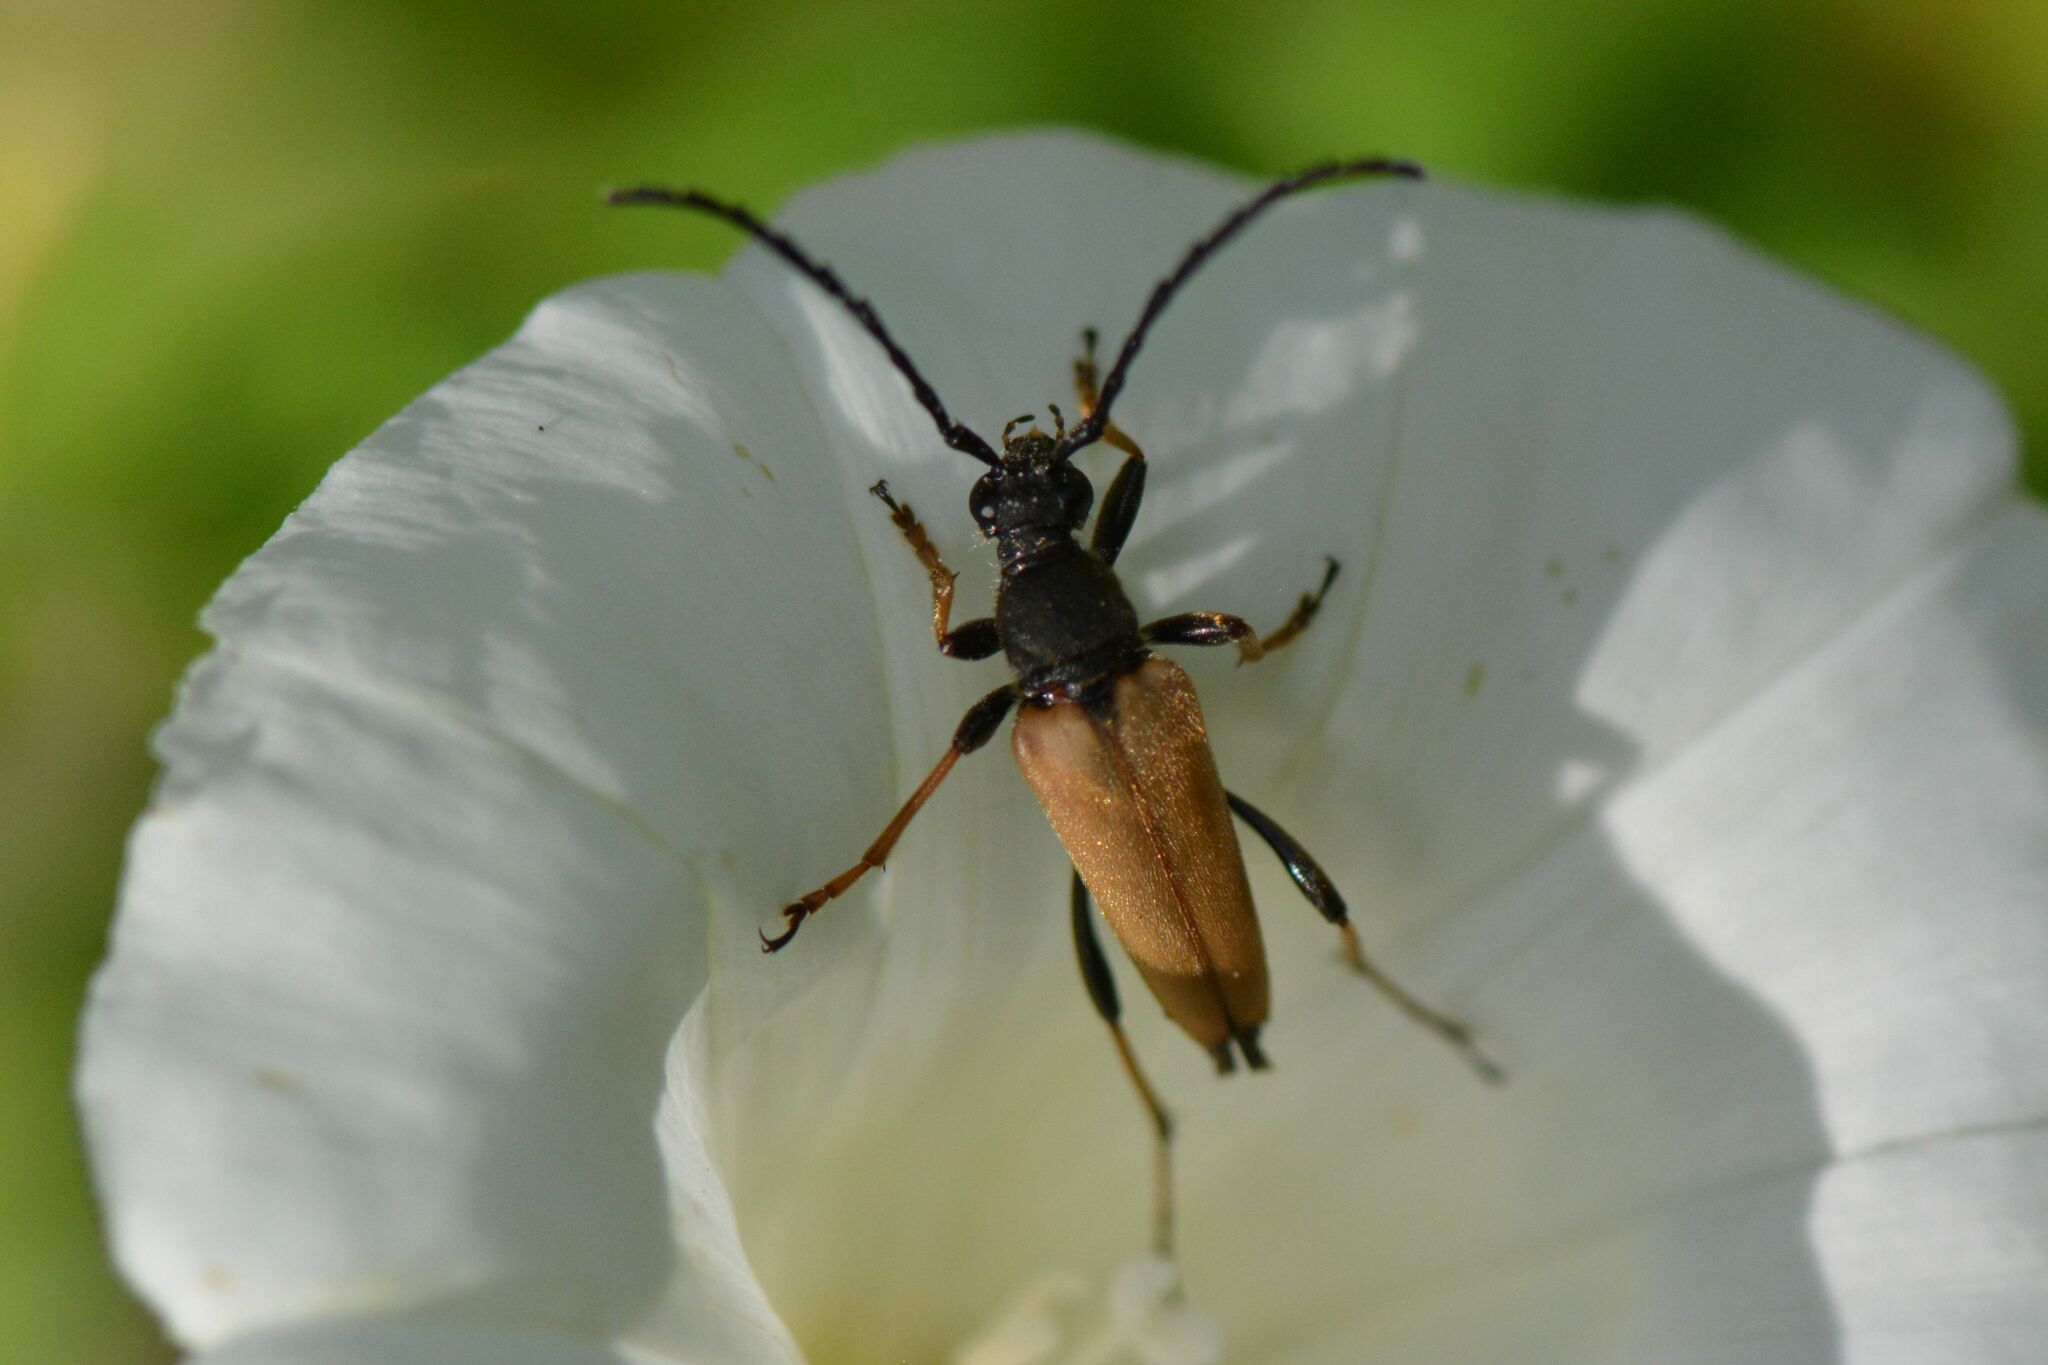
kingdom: Animalia
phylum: Arthropoda
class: Insecta
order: Coleoptera
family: Cerambycidae
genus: Stictoleptura
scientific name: Stictoleptura rubra
